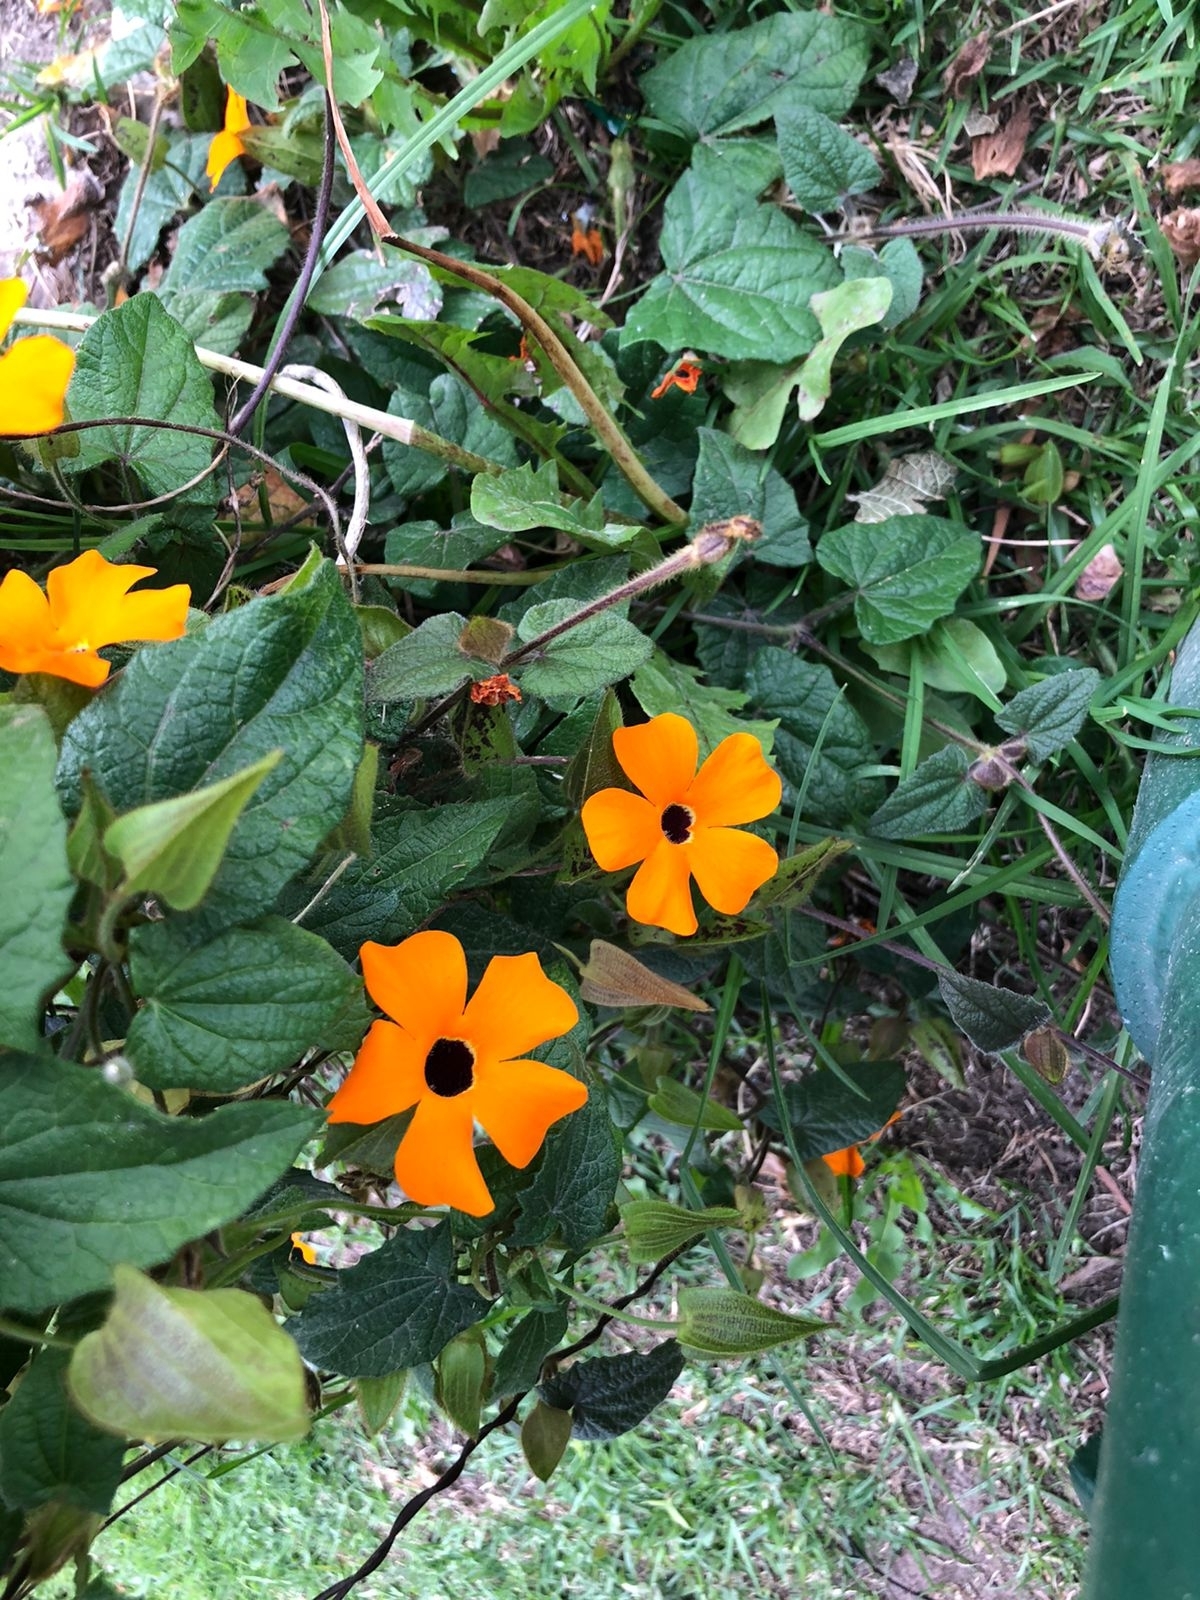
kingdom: Plantae
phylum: Tracheophyta
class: Magnoliopsida
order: Lamiales
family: Acanthaceae
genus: Thunbergia
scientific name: Thunbergia alata
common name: Blackeyed susan vine
